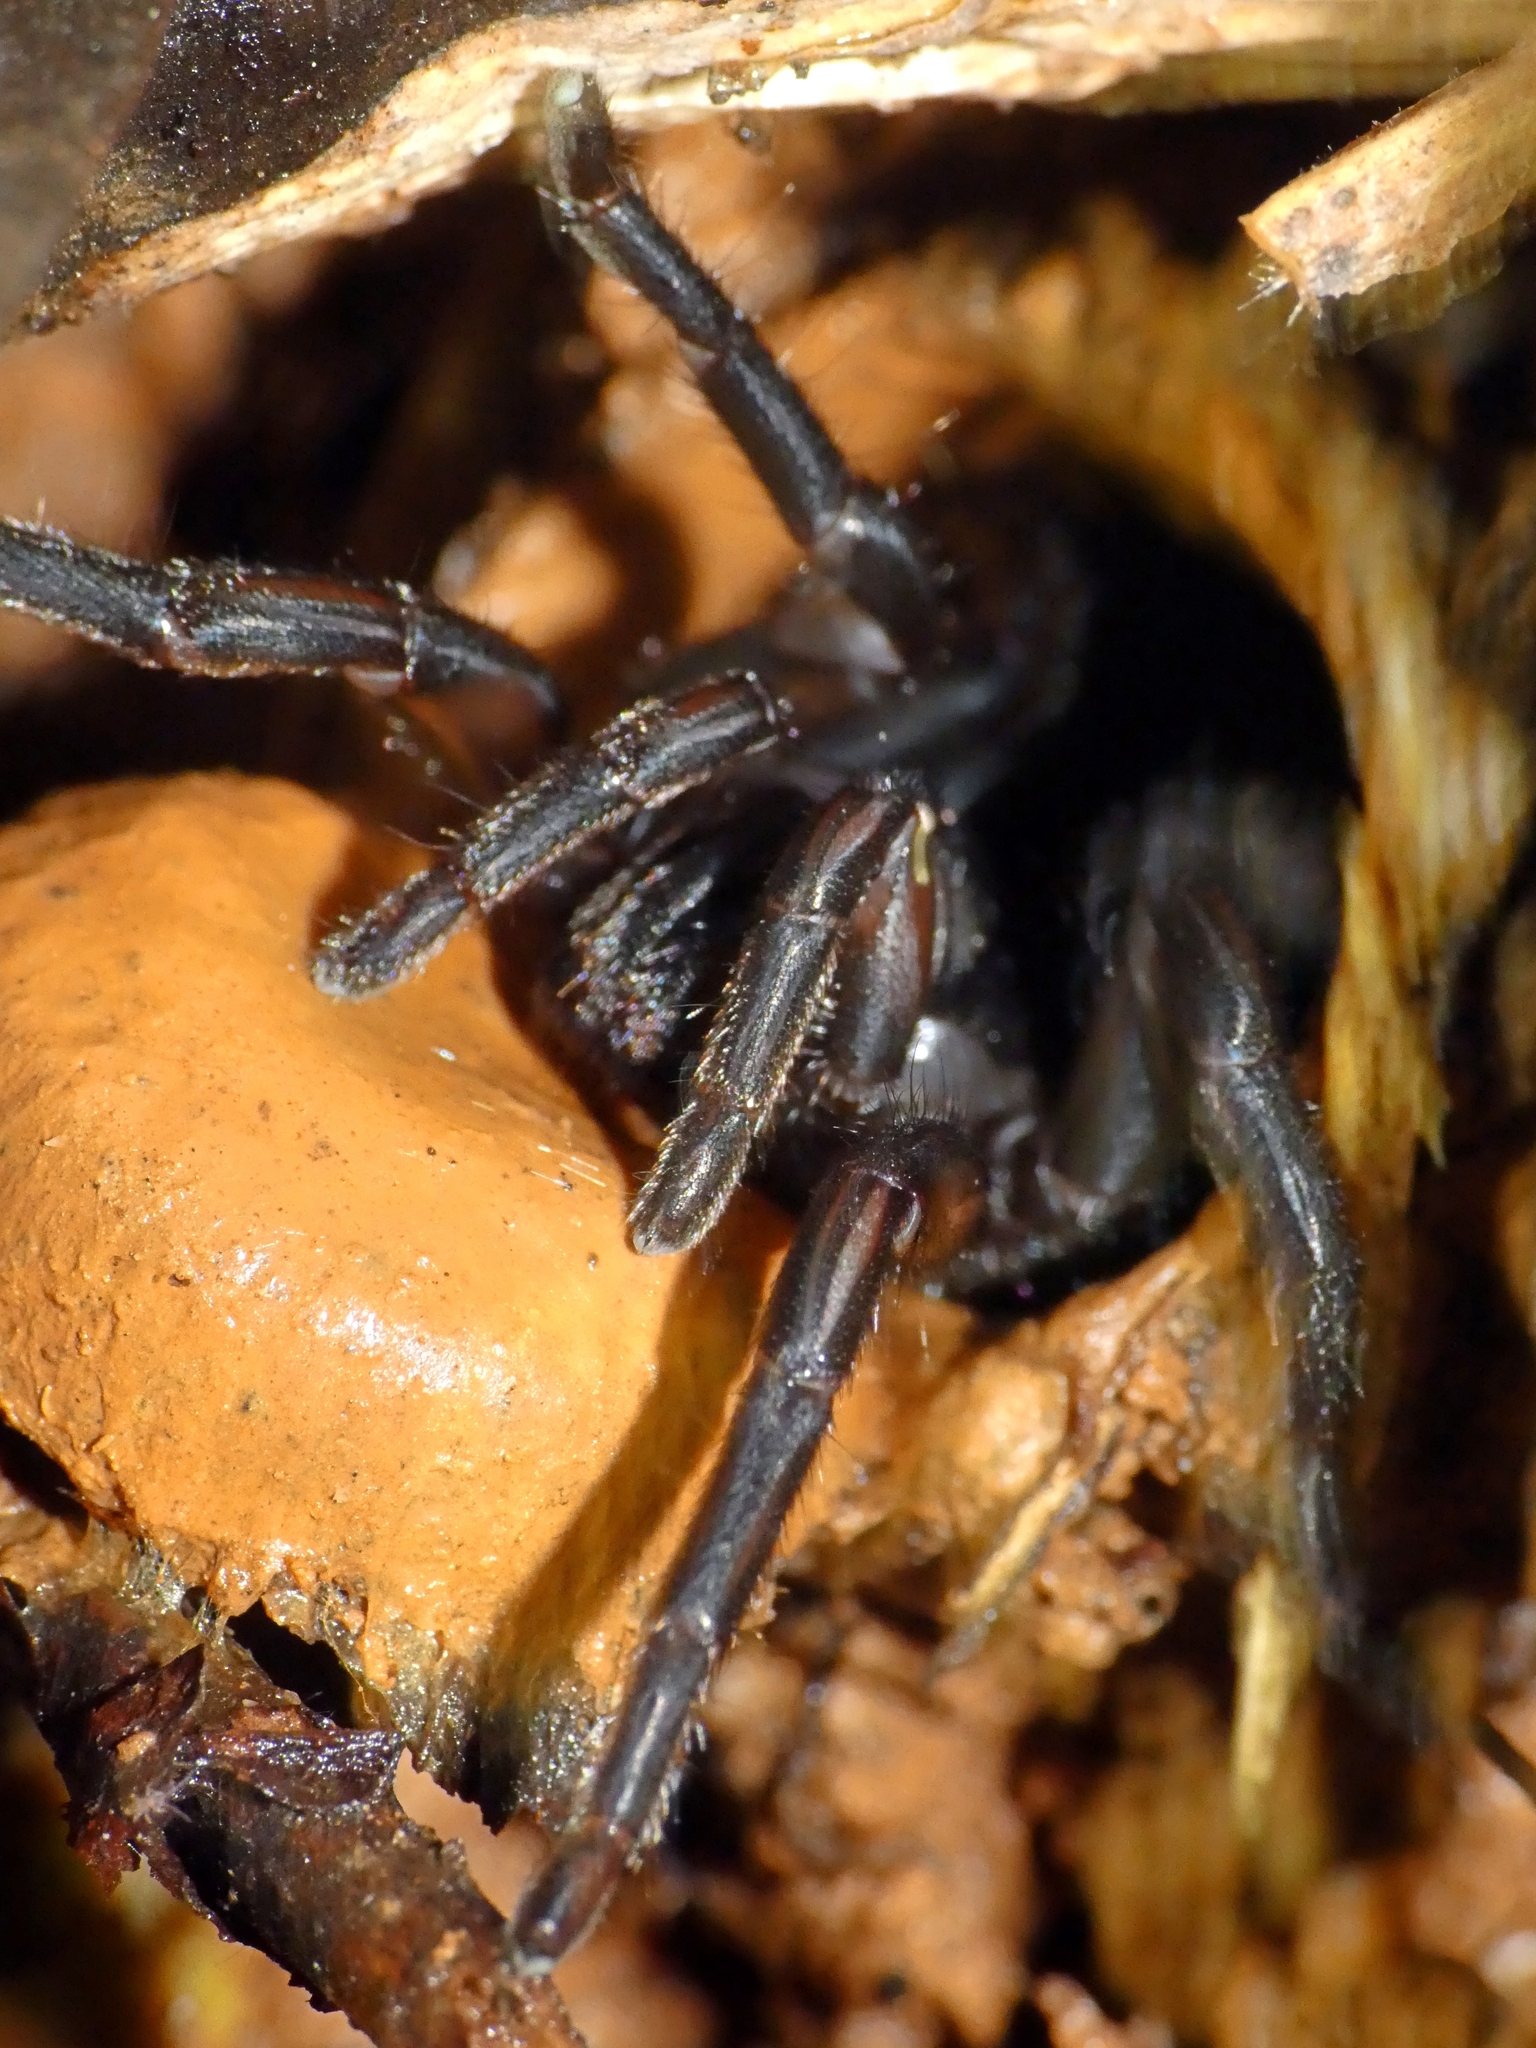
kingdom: Animalia
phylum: Arthropoda
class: Arachnida
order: Araneae
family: Barychelidae
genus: Trittame
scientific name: Trittame loki
